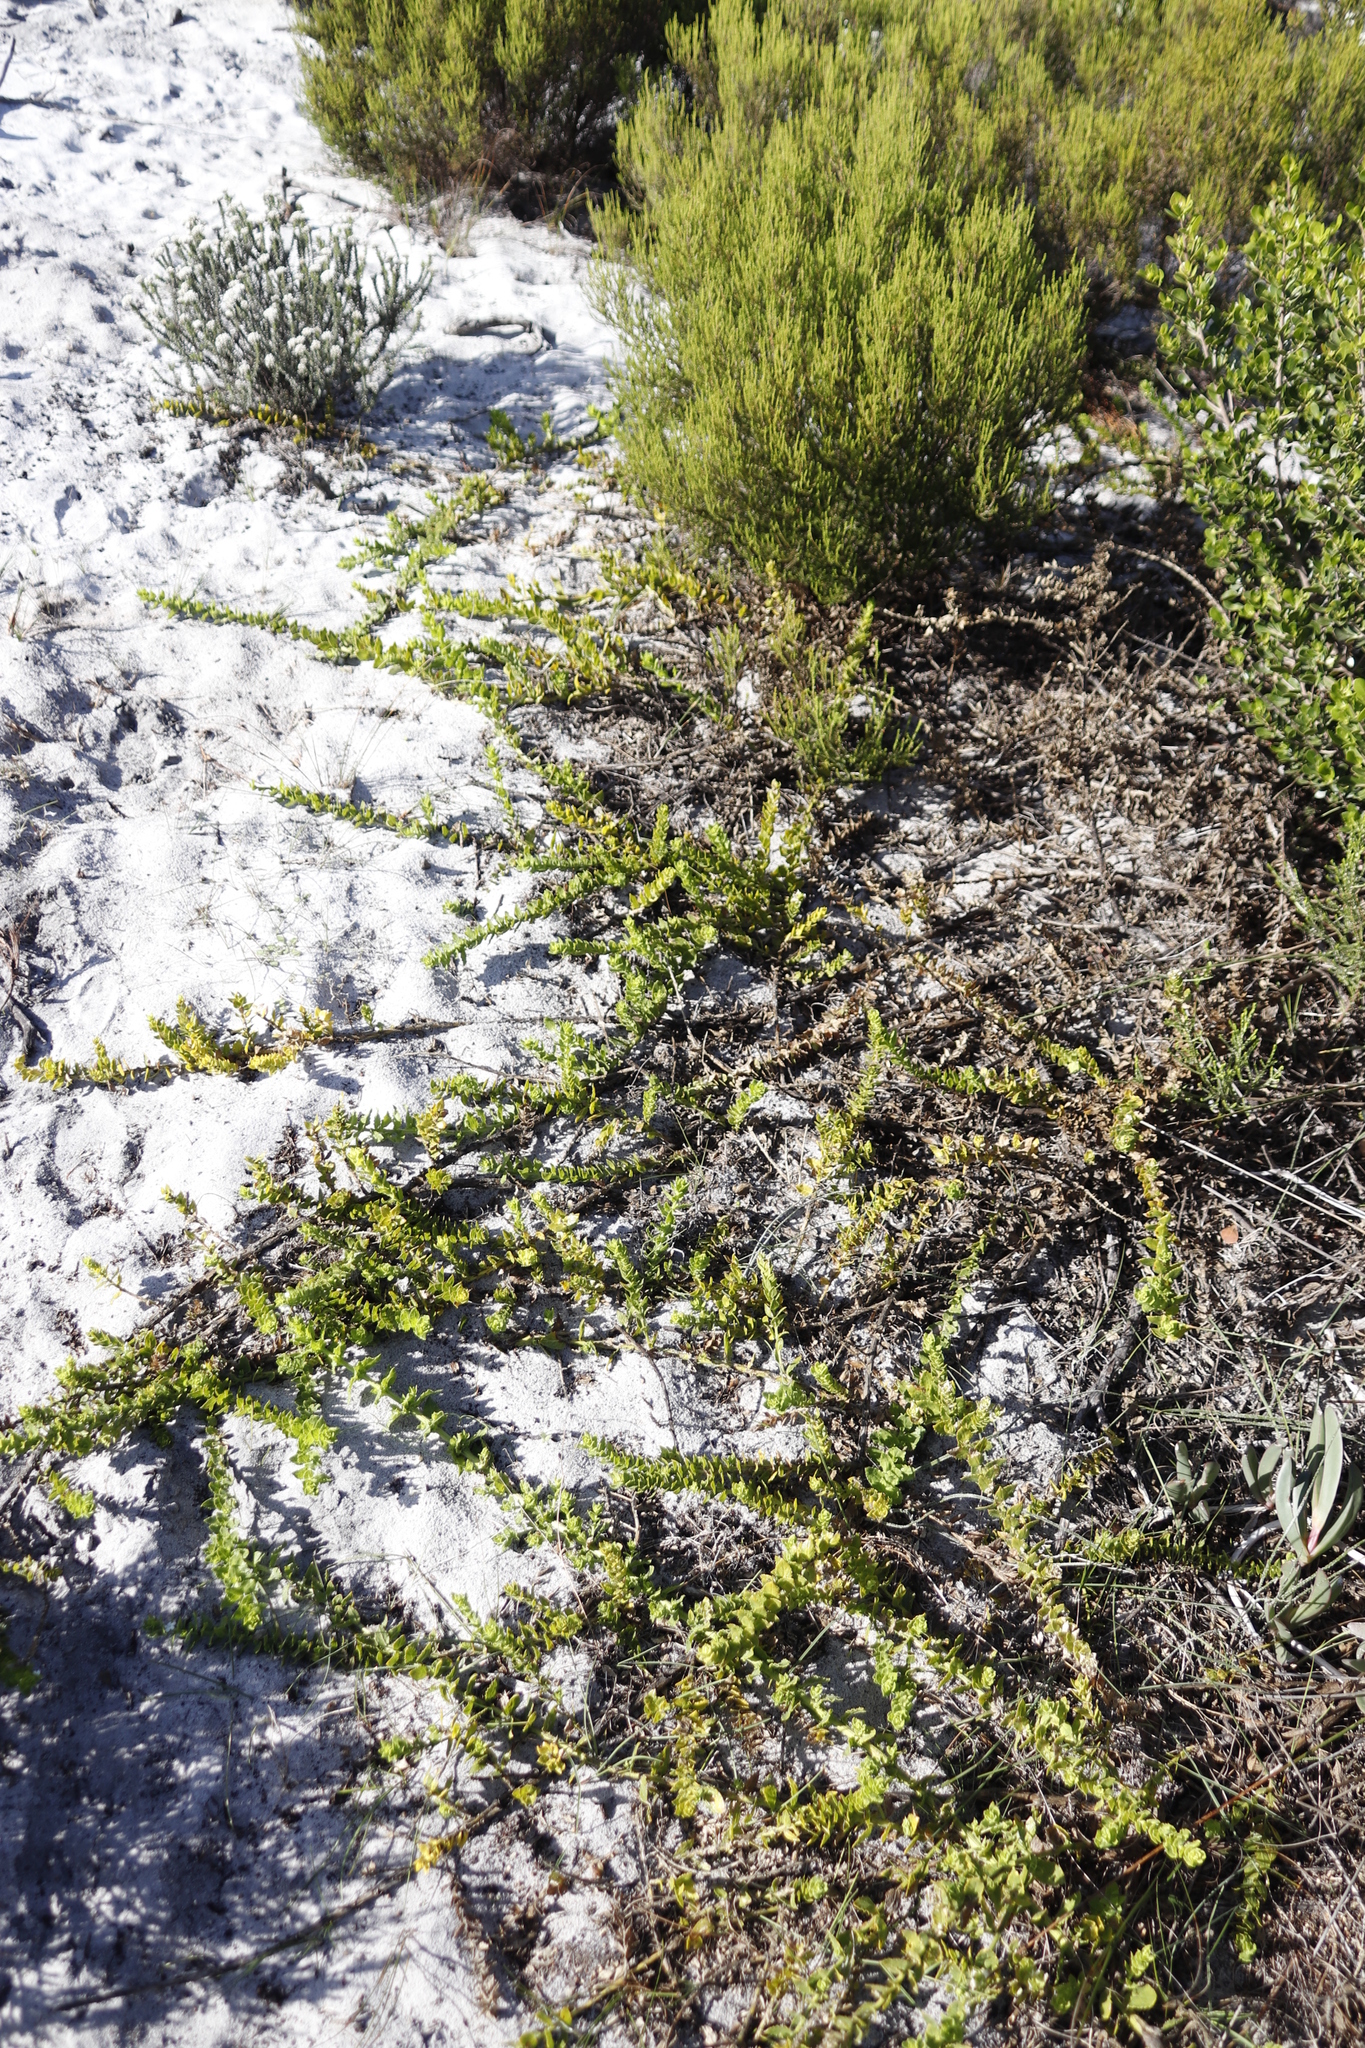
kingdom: Plantae
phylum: Tracheophyta
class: Magnoliopsida
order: Lamiales
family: Scrophulariaceae
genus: Oftia
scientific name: Oftia africana
